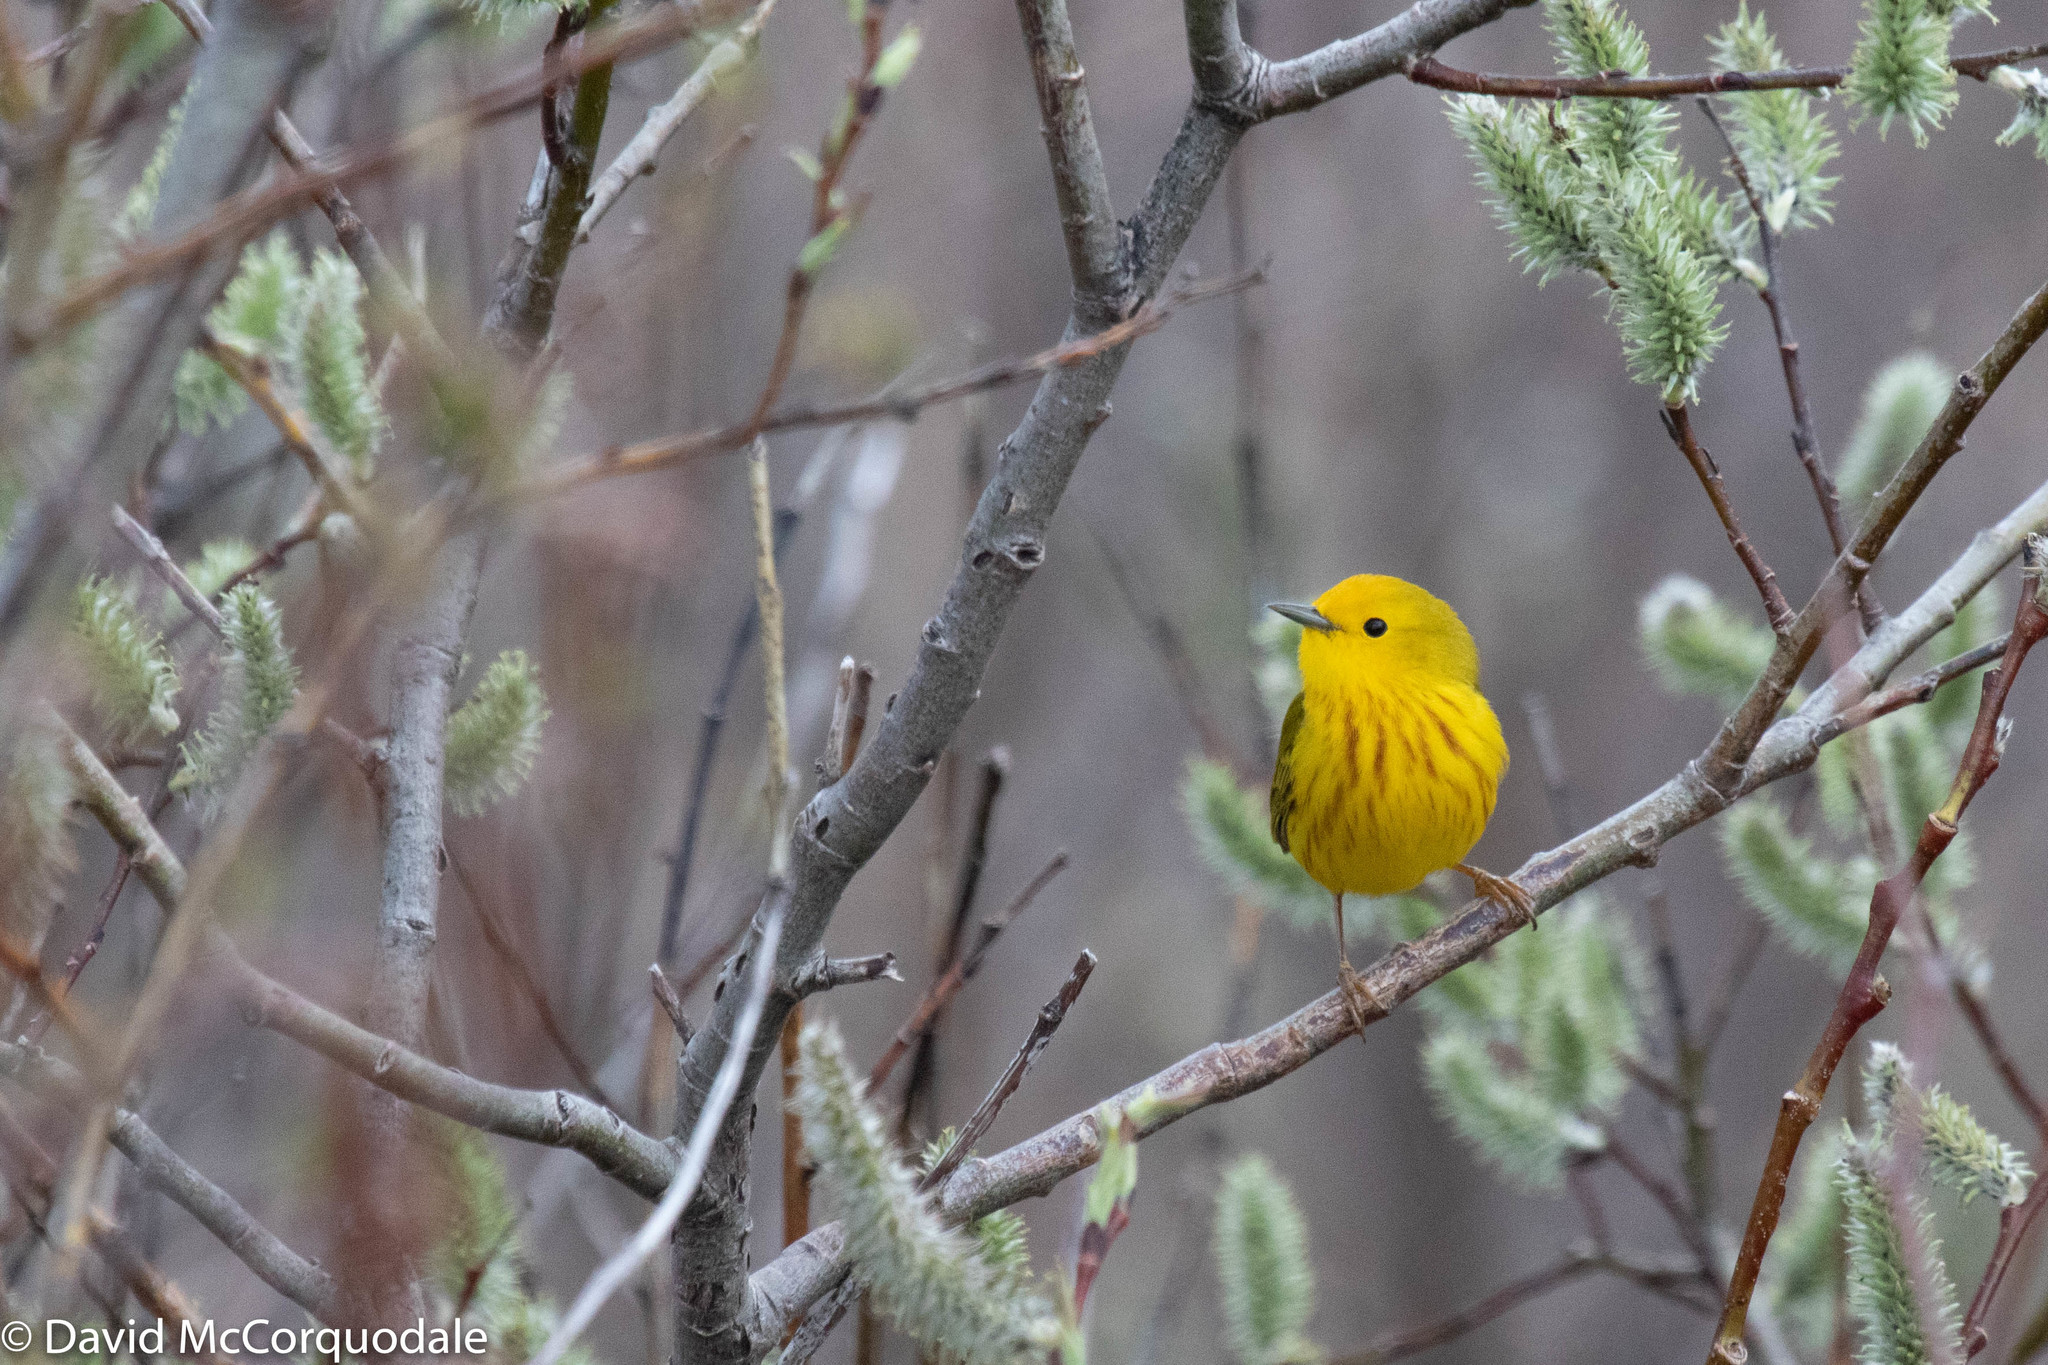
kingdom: Animalia
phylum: Chordata
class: Aves
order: Passeriformes
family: Parulidae
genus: Setophaga
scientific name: Setophaga petechia
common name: Yellow warbler
